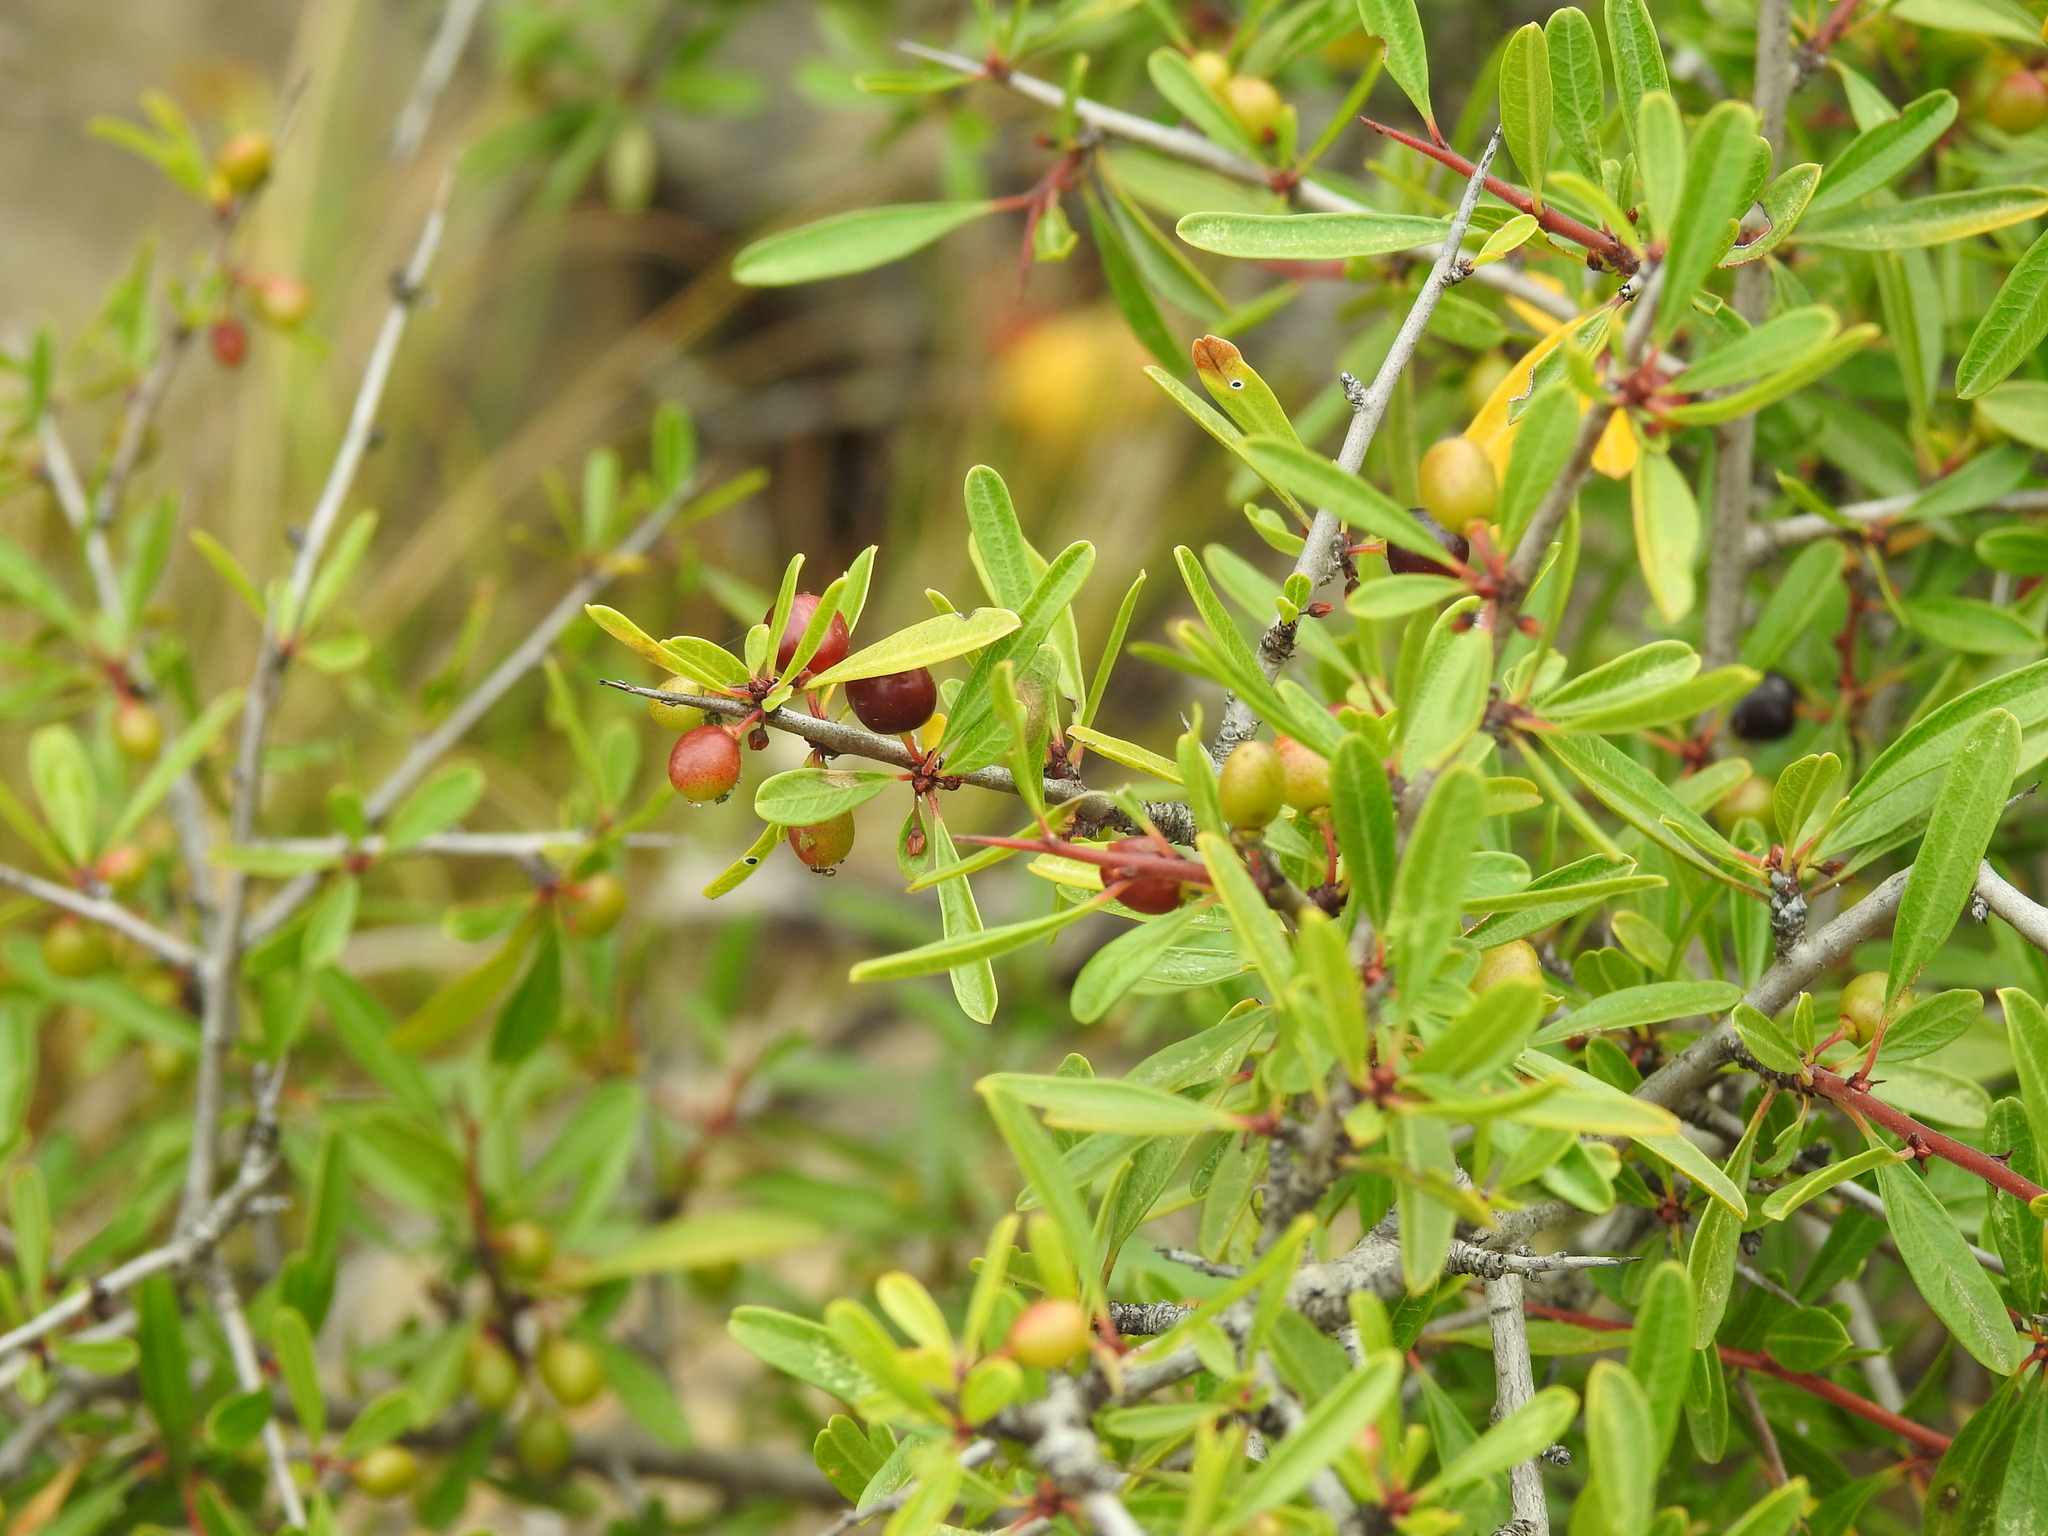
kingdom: Plantae
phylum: Tracheophyta
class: Magnoliopsida
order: Rosales
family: Rhamnaceae
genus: Rhamnus
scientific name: Rhamnus oleoides
